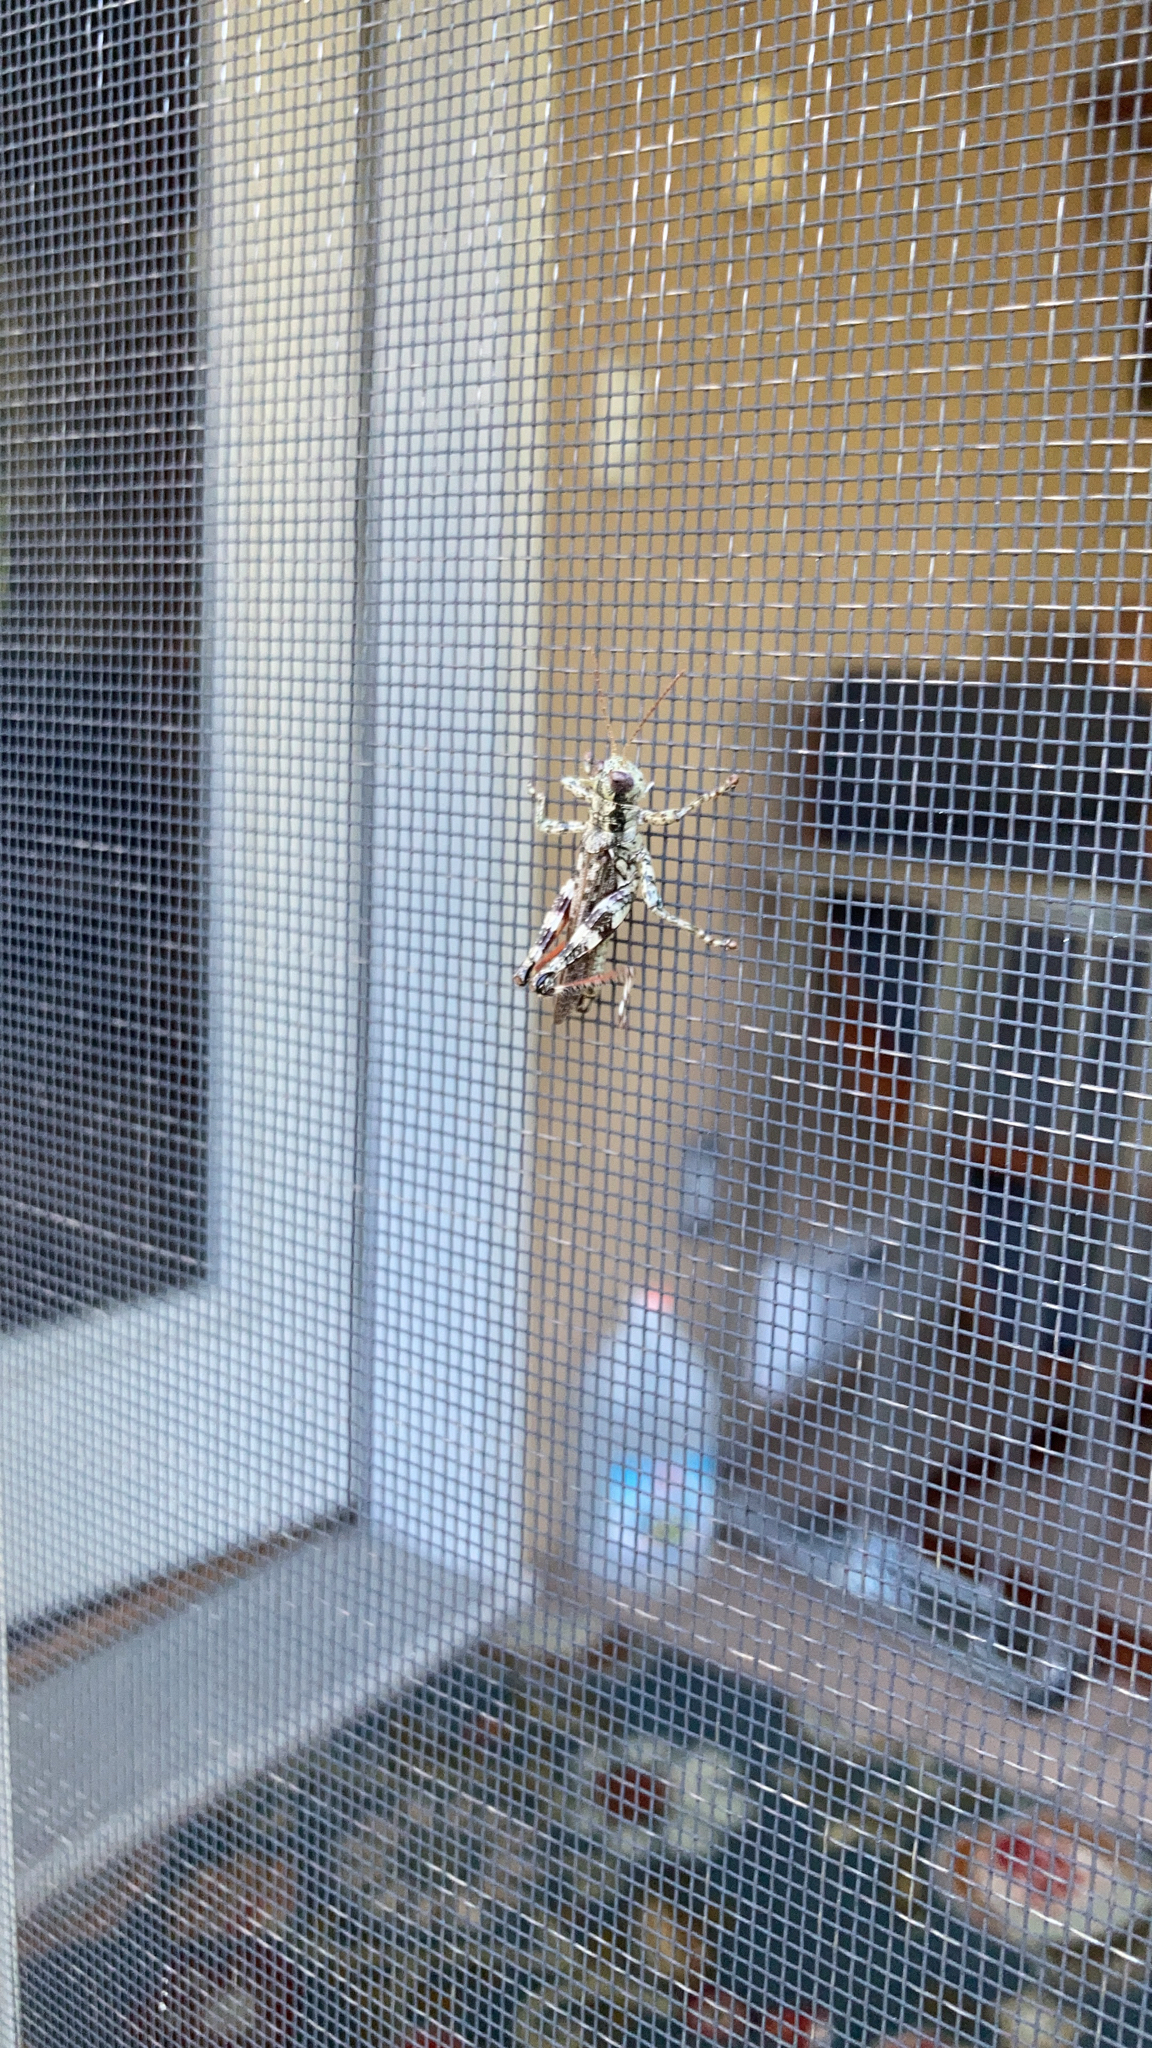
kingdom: Animalia
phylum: Arthropoda
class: Insecta
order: Orthoptera
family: Acrididae
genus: Melanoplus
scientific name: Melanoplus punctulatus
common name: Pine-tree spur-throat grasshopper
